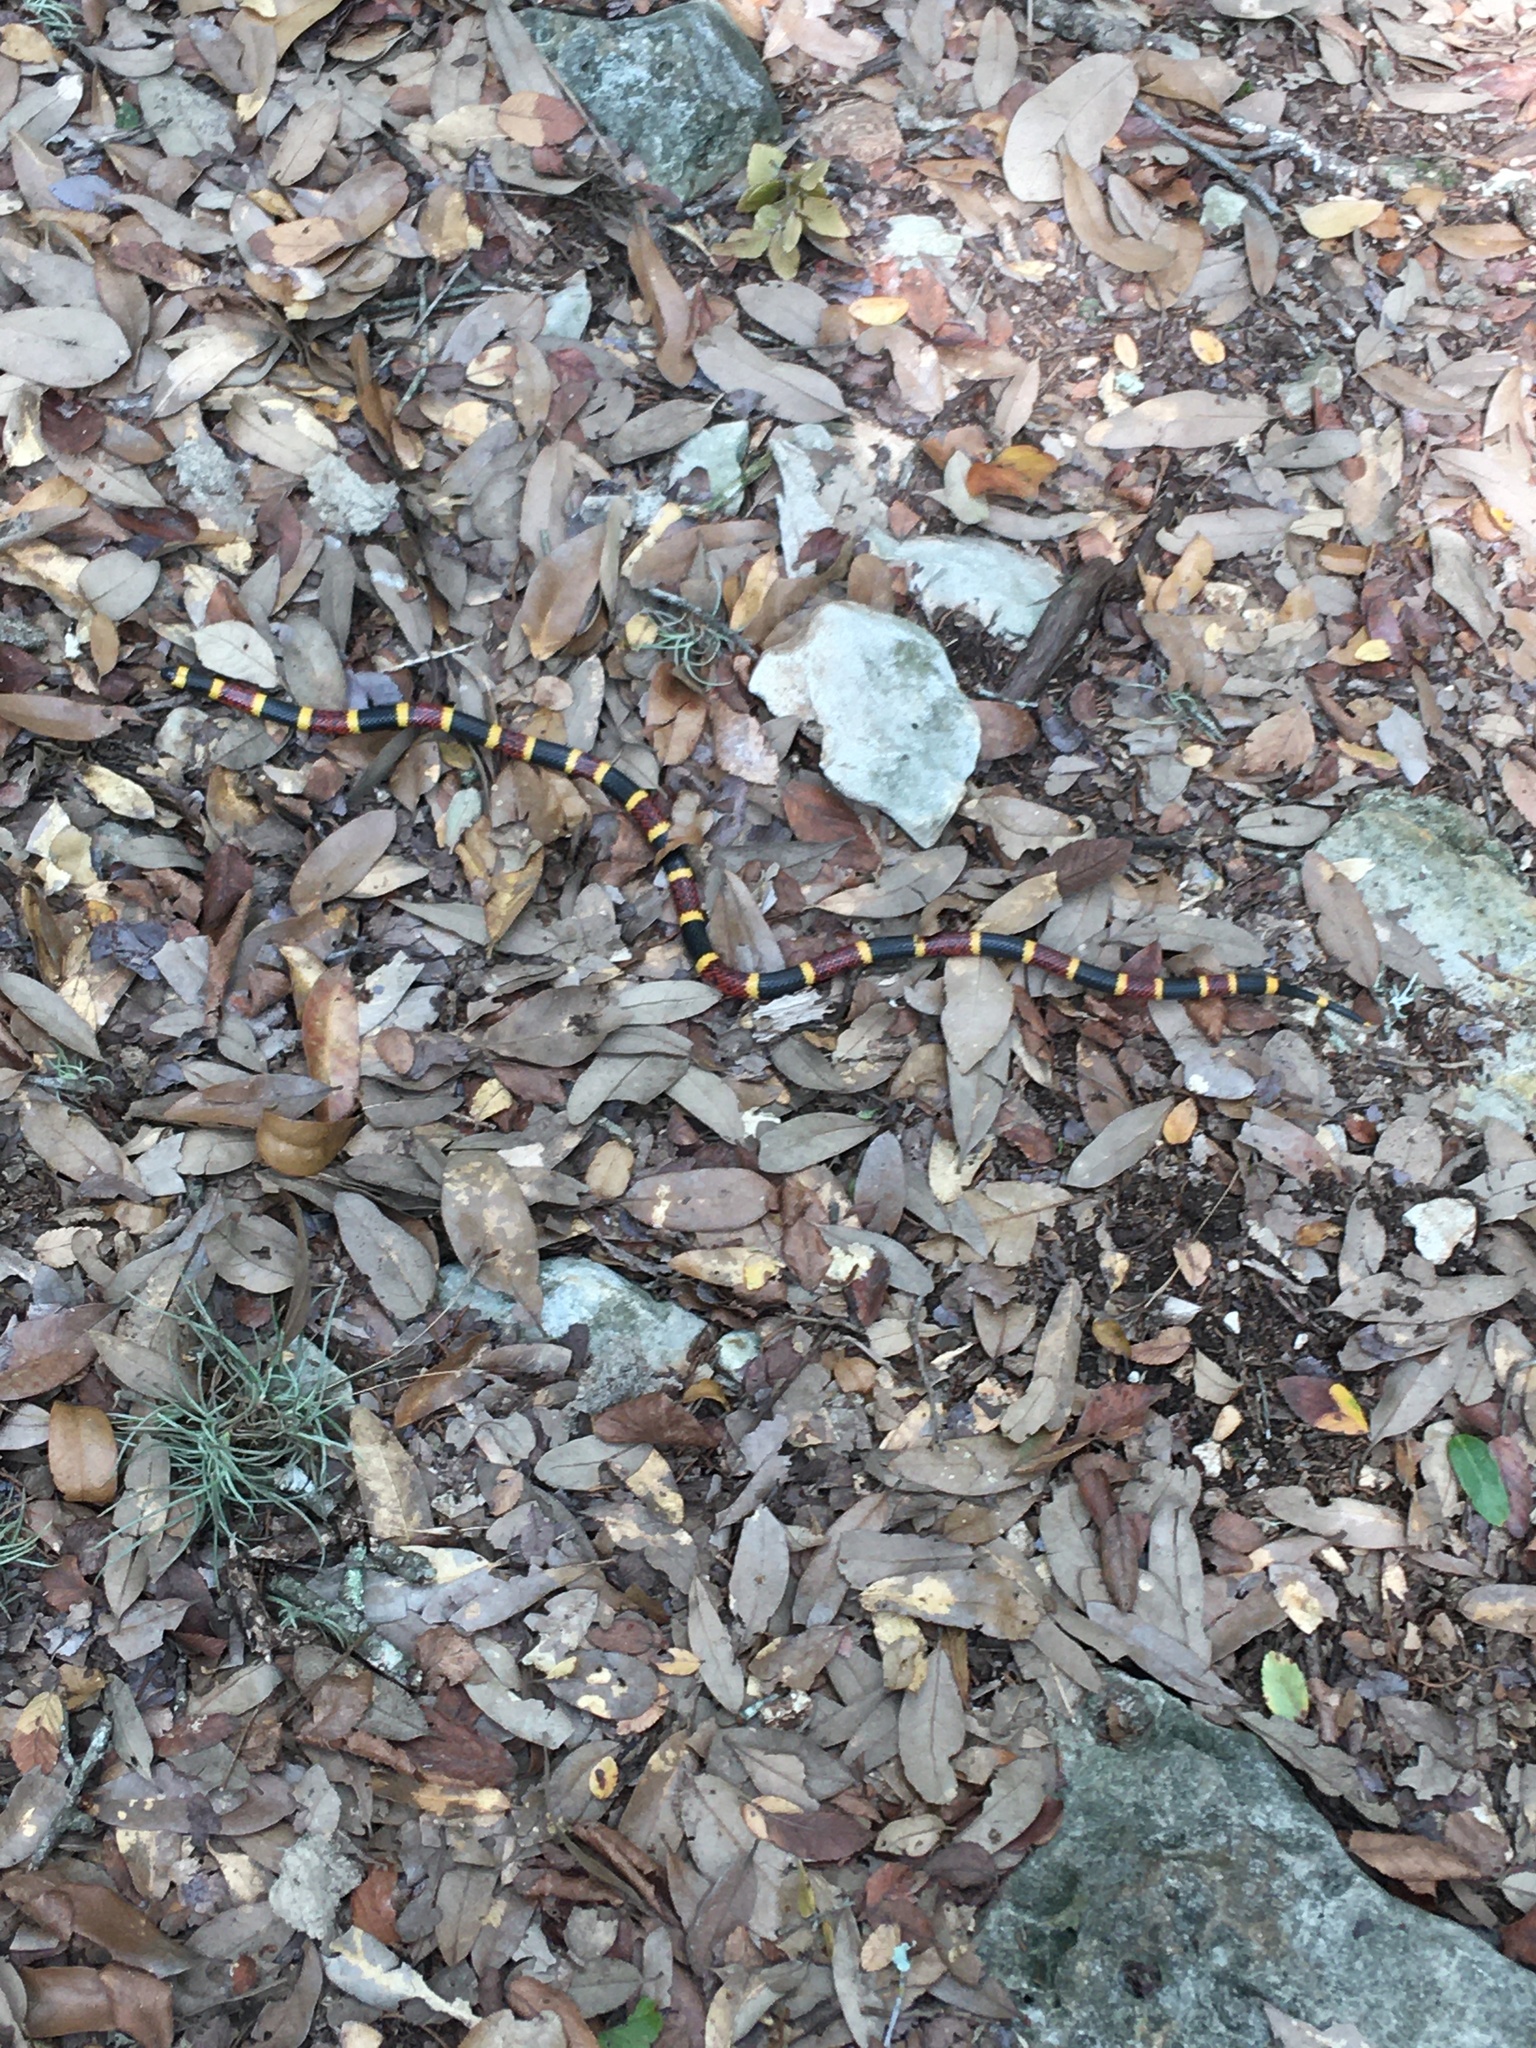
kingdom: Animalia
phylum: Chordata
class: Squamata
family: Elapidae
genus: Micrurus
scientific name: Micrurus tener
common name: Texas coral snake
